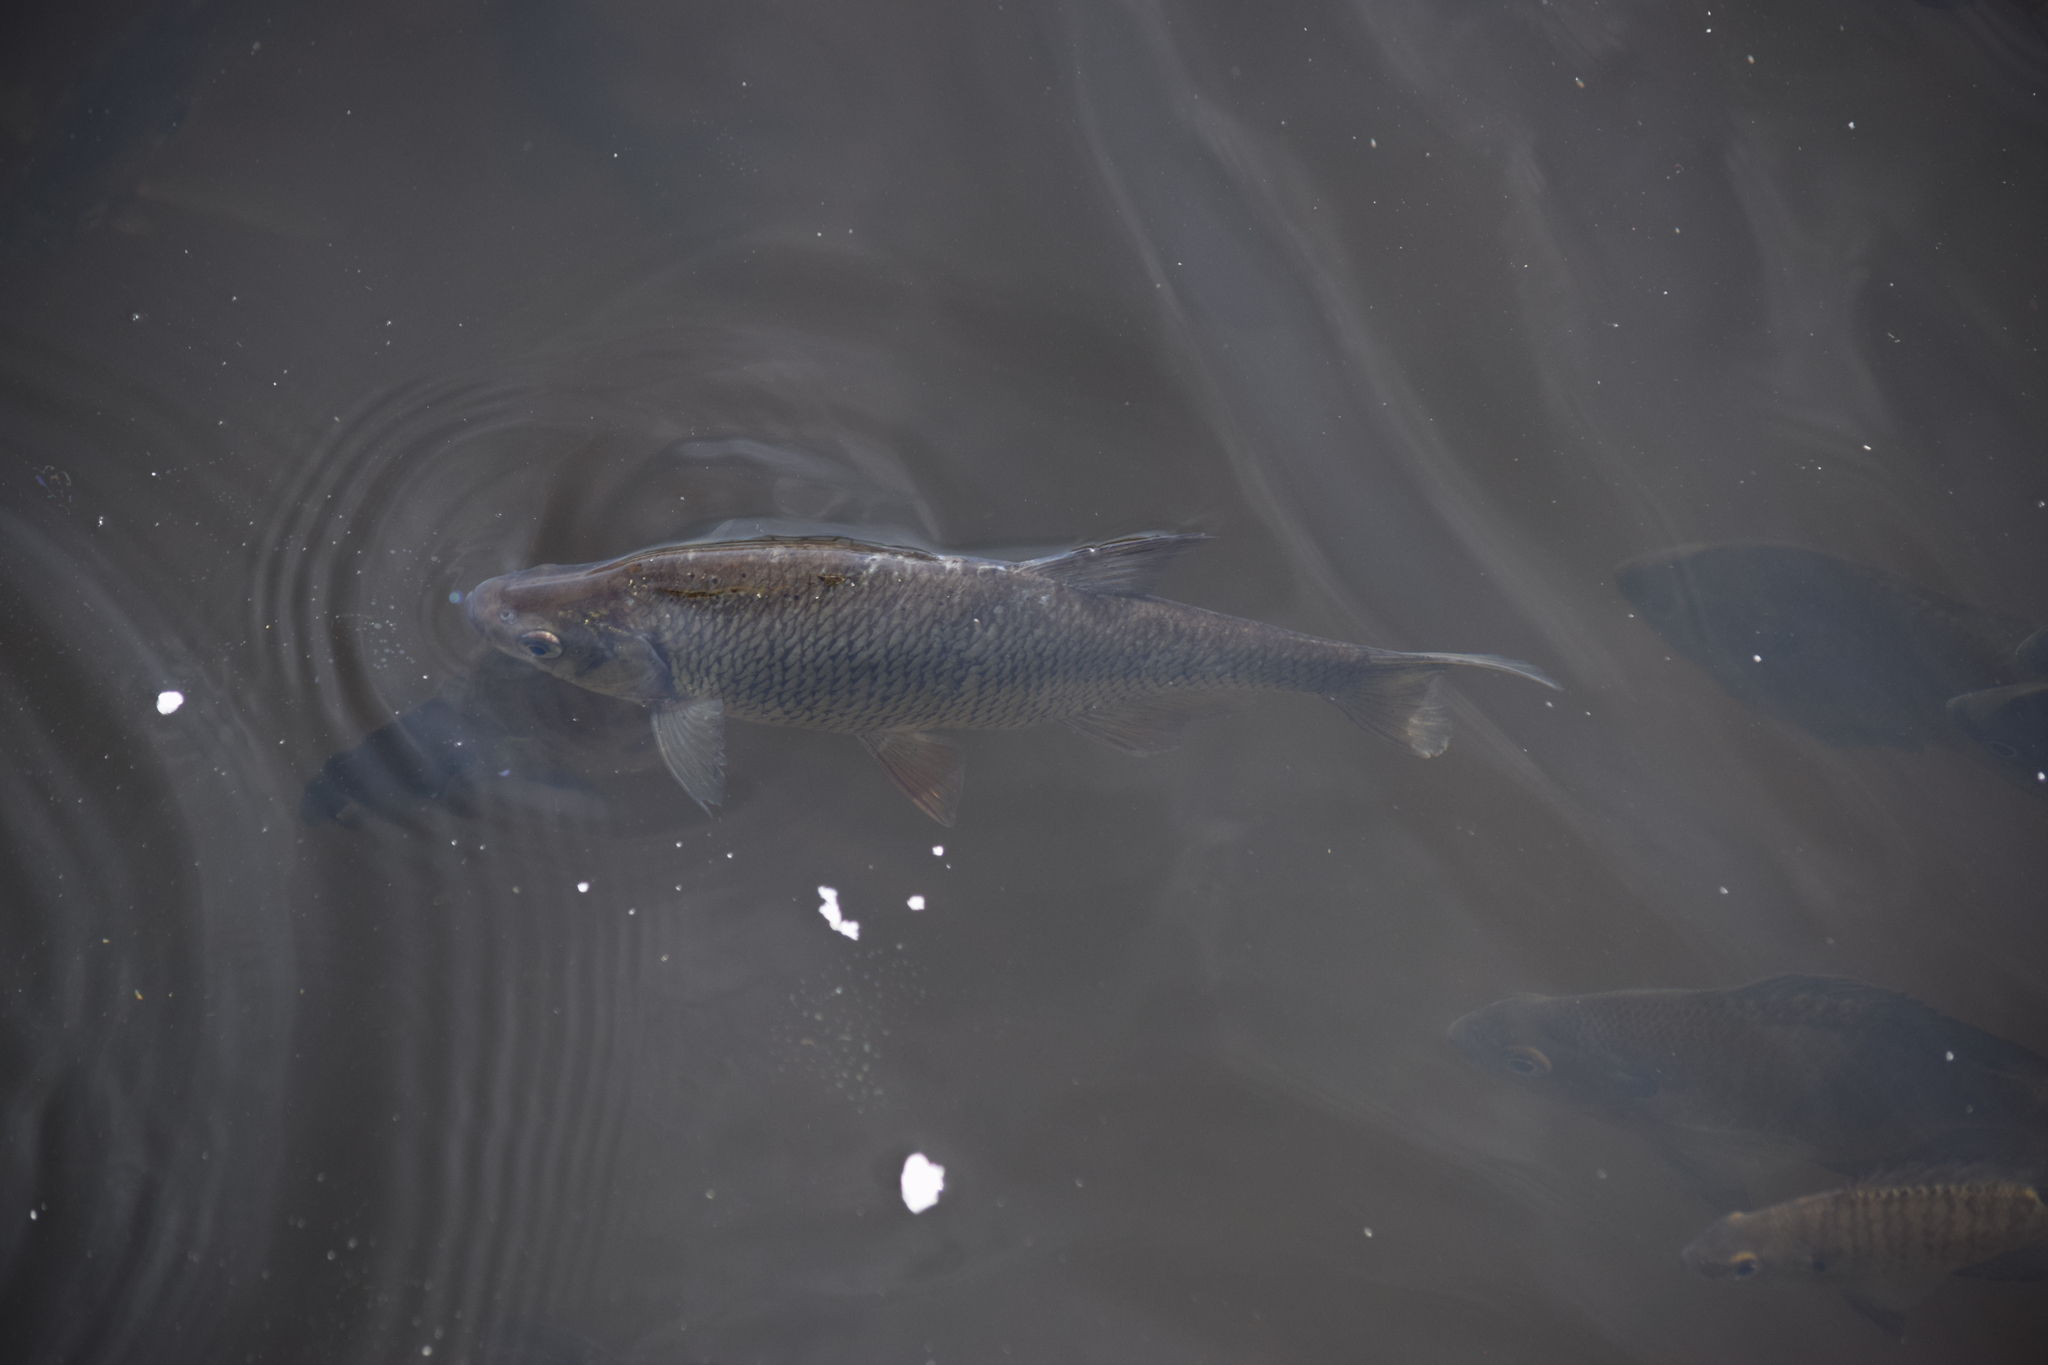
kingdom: Animalia
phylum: Chordata
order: Cypriniformes
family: Cyprinidae
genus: Notemigonus
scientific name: Notemigonus crysoleucas
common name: Golden shiner
